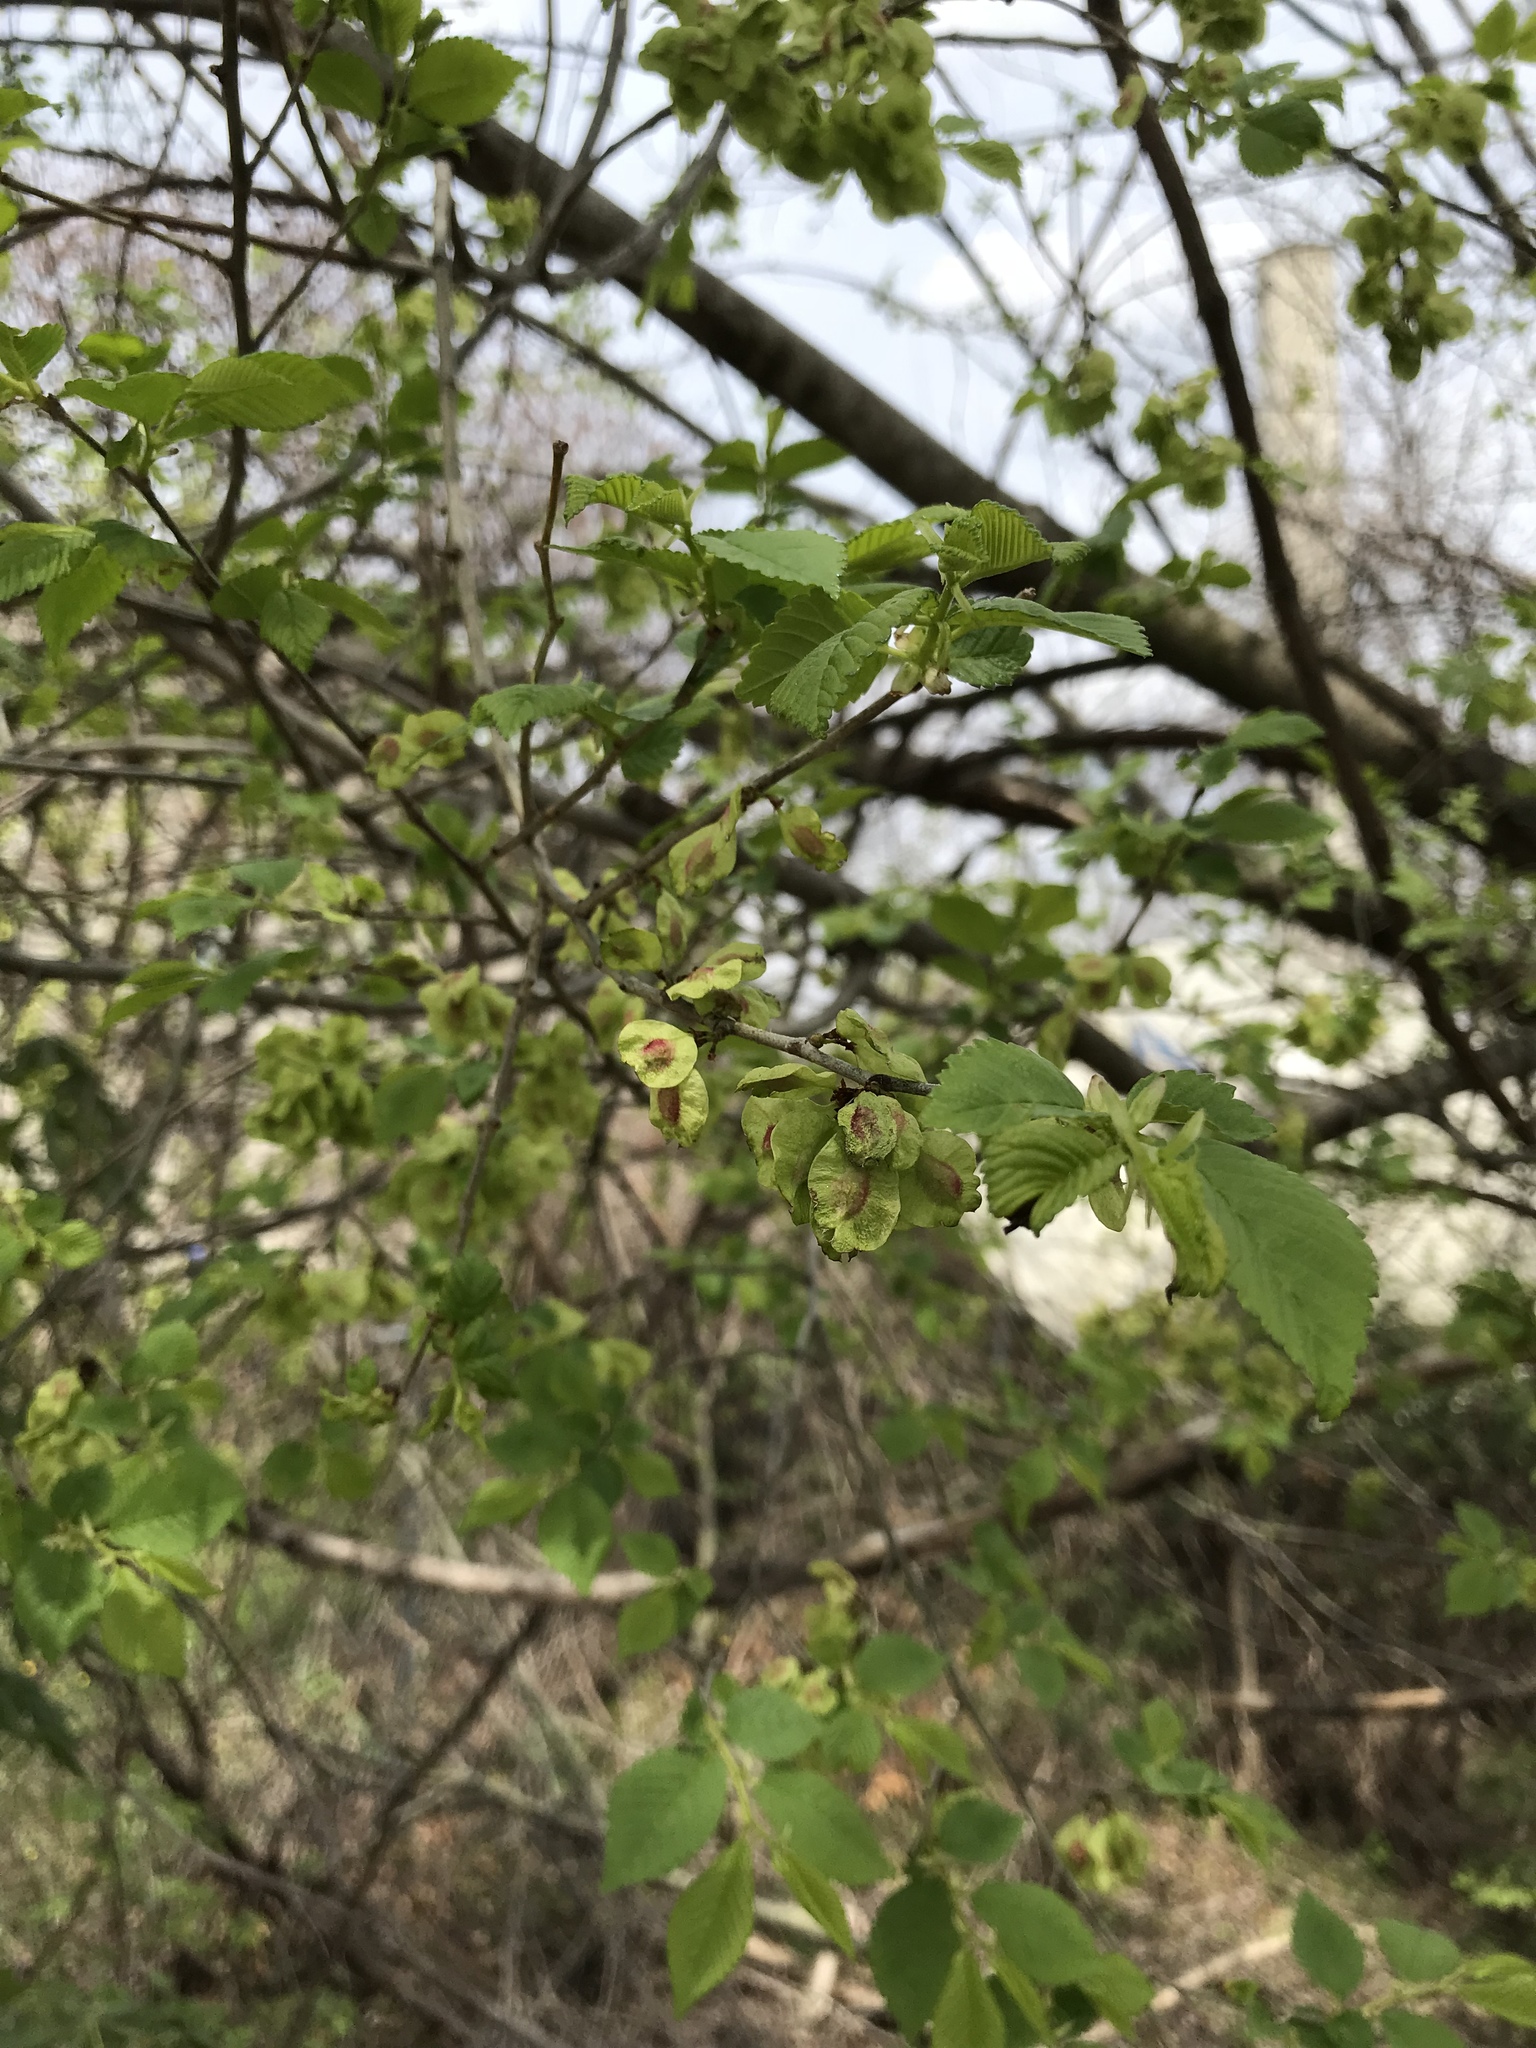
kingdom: Plantae
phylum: Tracheophyta
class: Magnoliopsida
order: Rosales
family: Ulmaceae
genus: Ulmus
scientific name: Ulmus pumila
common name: Siberian elm
